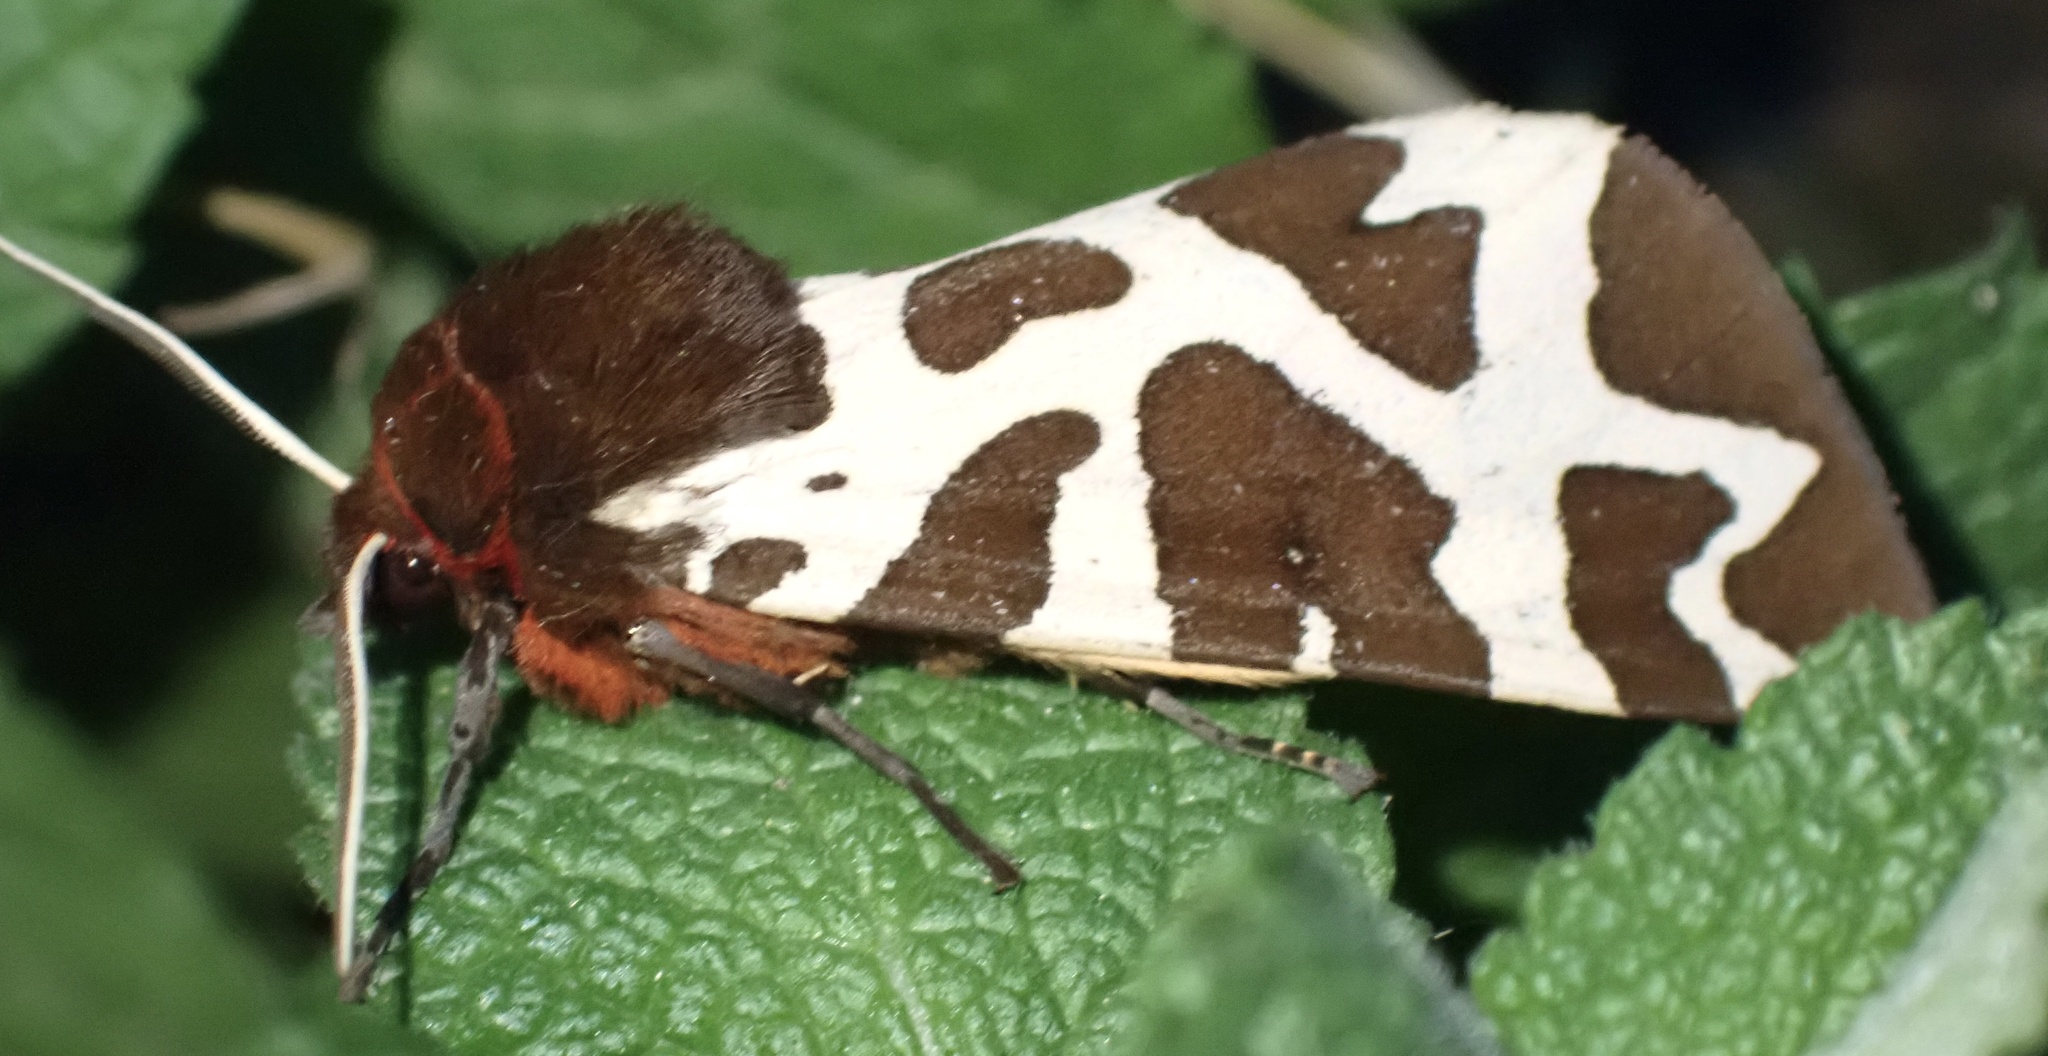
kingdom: Animalia
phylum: Arthropoda
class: Insecta
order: Lepidoptera
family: Erebidae
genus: Arctia
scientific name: Arctia caja
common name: Garden tiger
